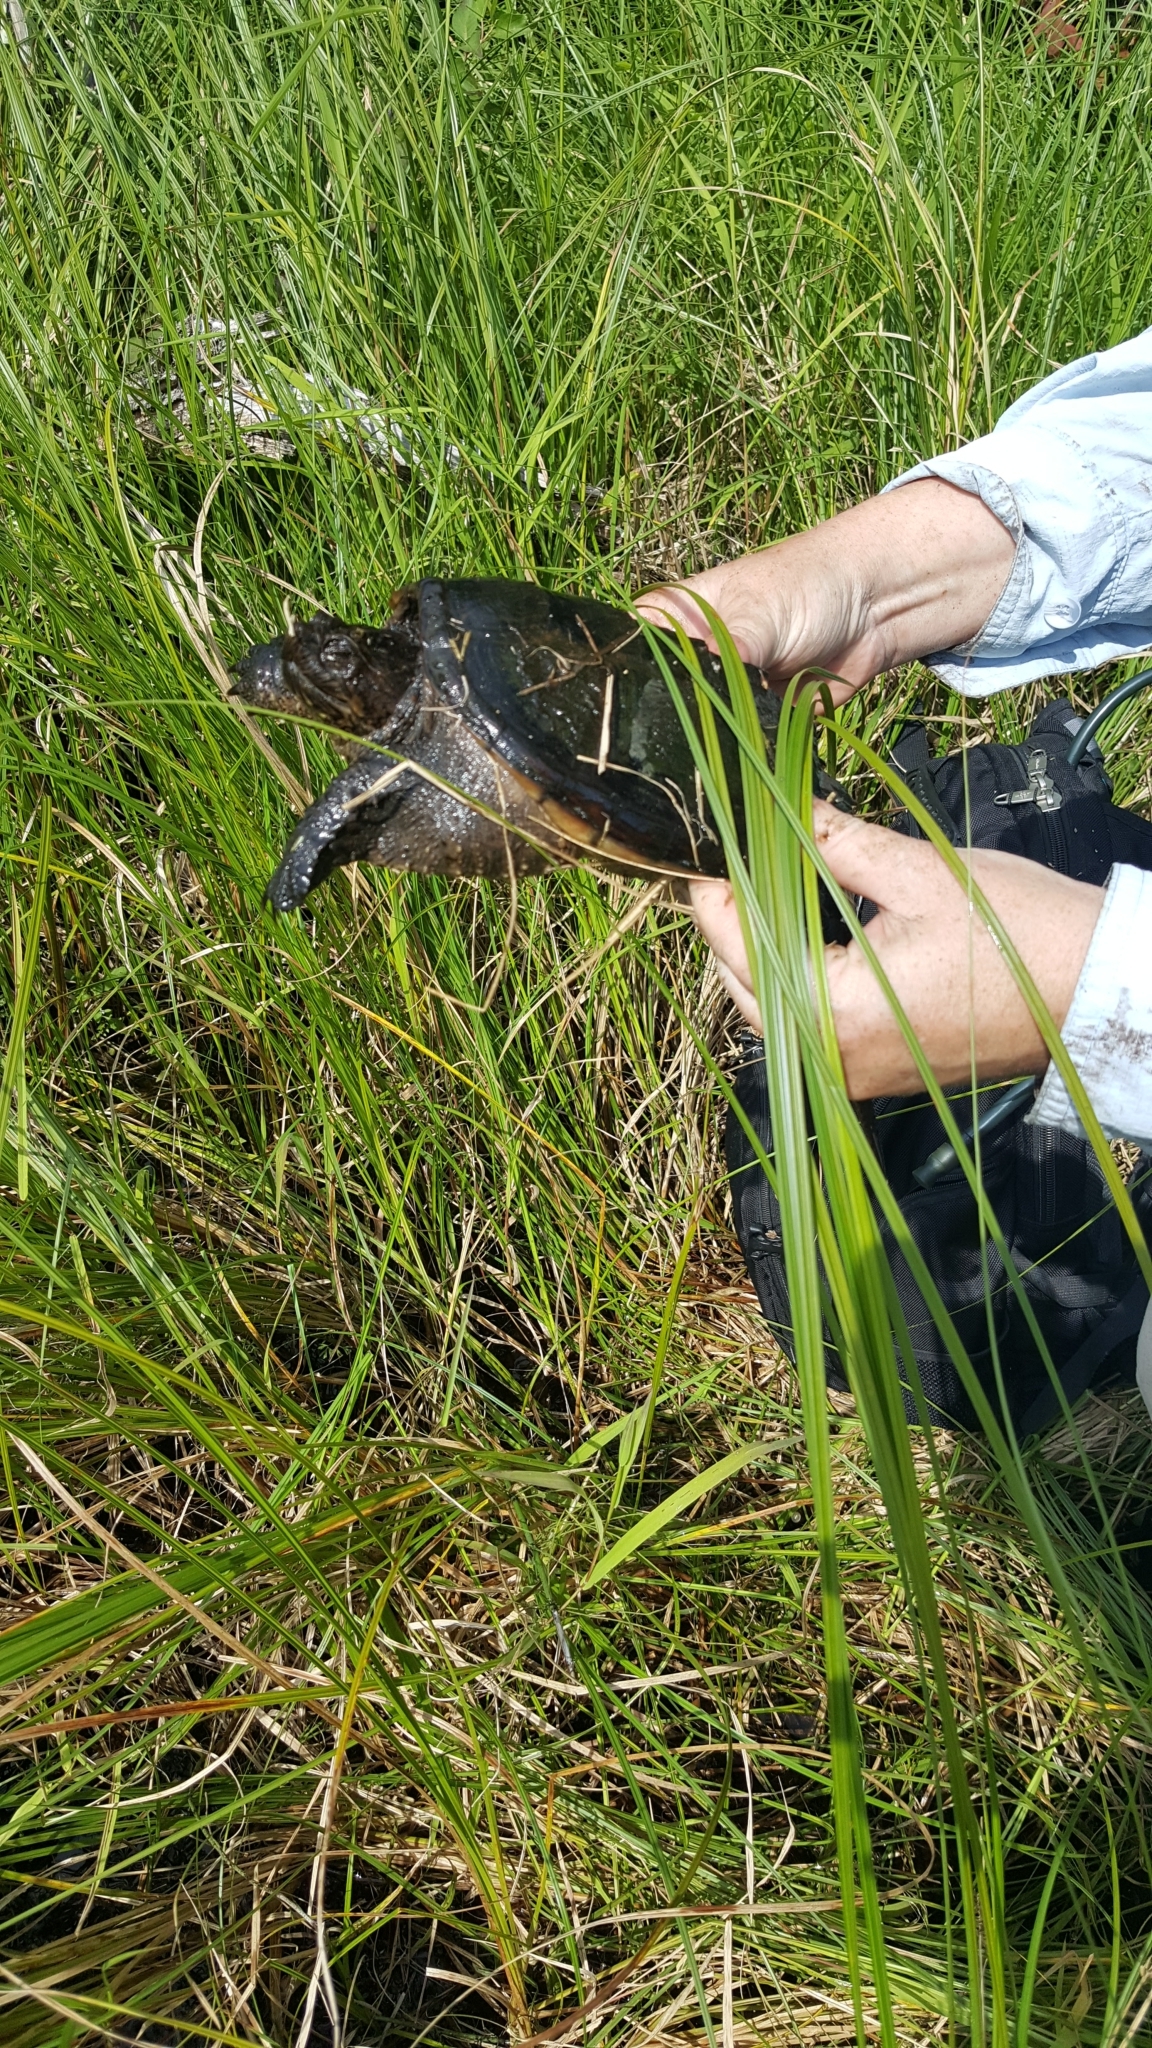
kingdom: Animalia
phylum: Chordata
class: Testudines
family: Chelydridae
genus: Chelydra
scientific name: Chelydra serpentina
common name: Common snapping turtle
